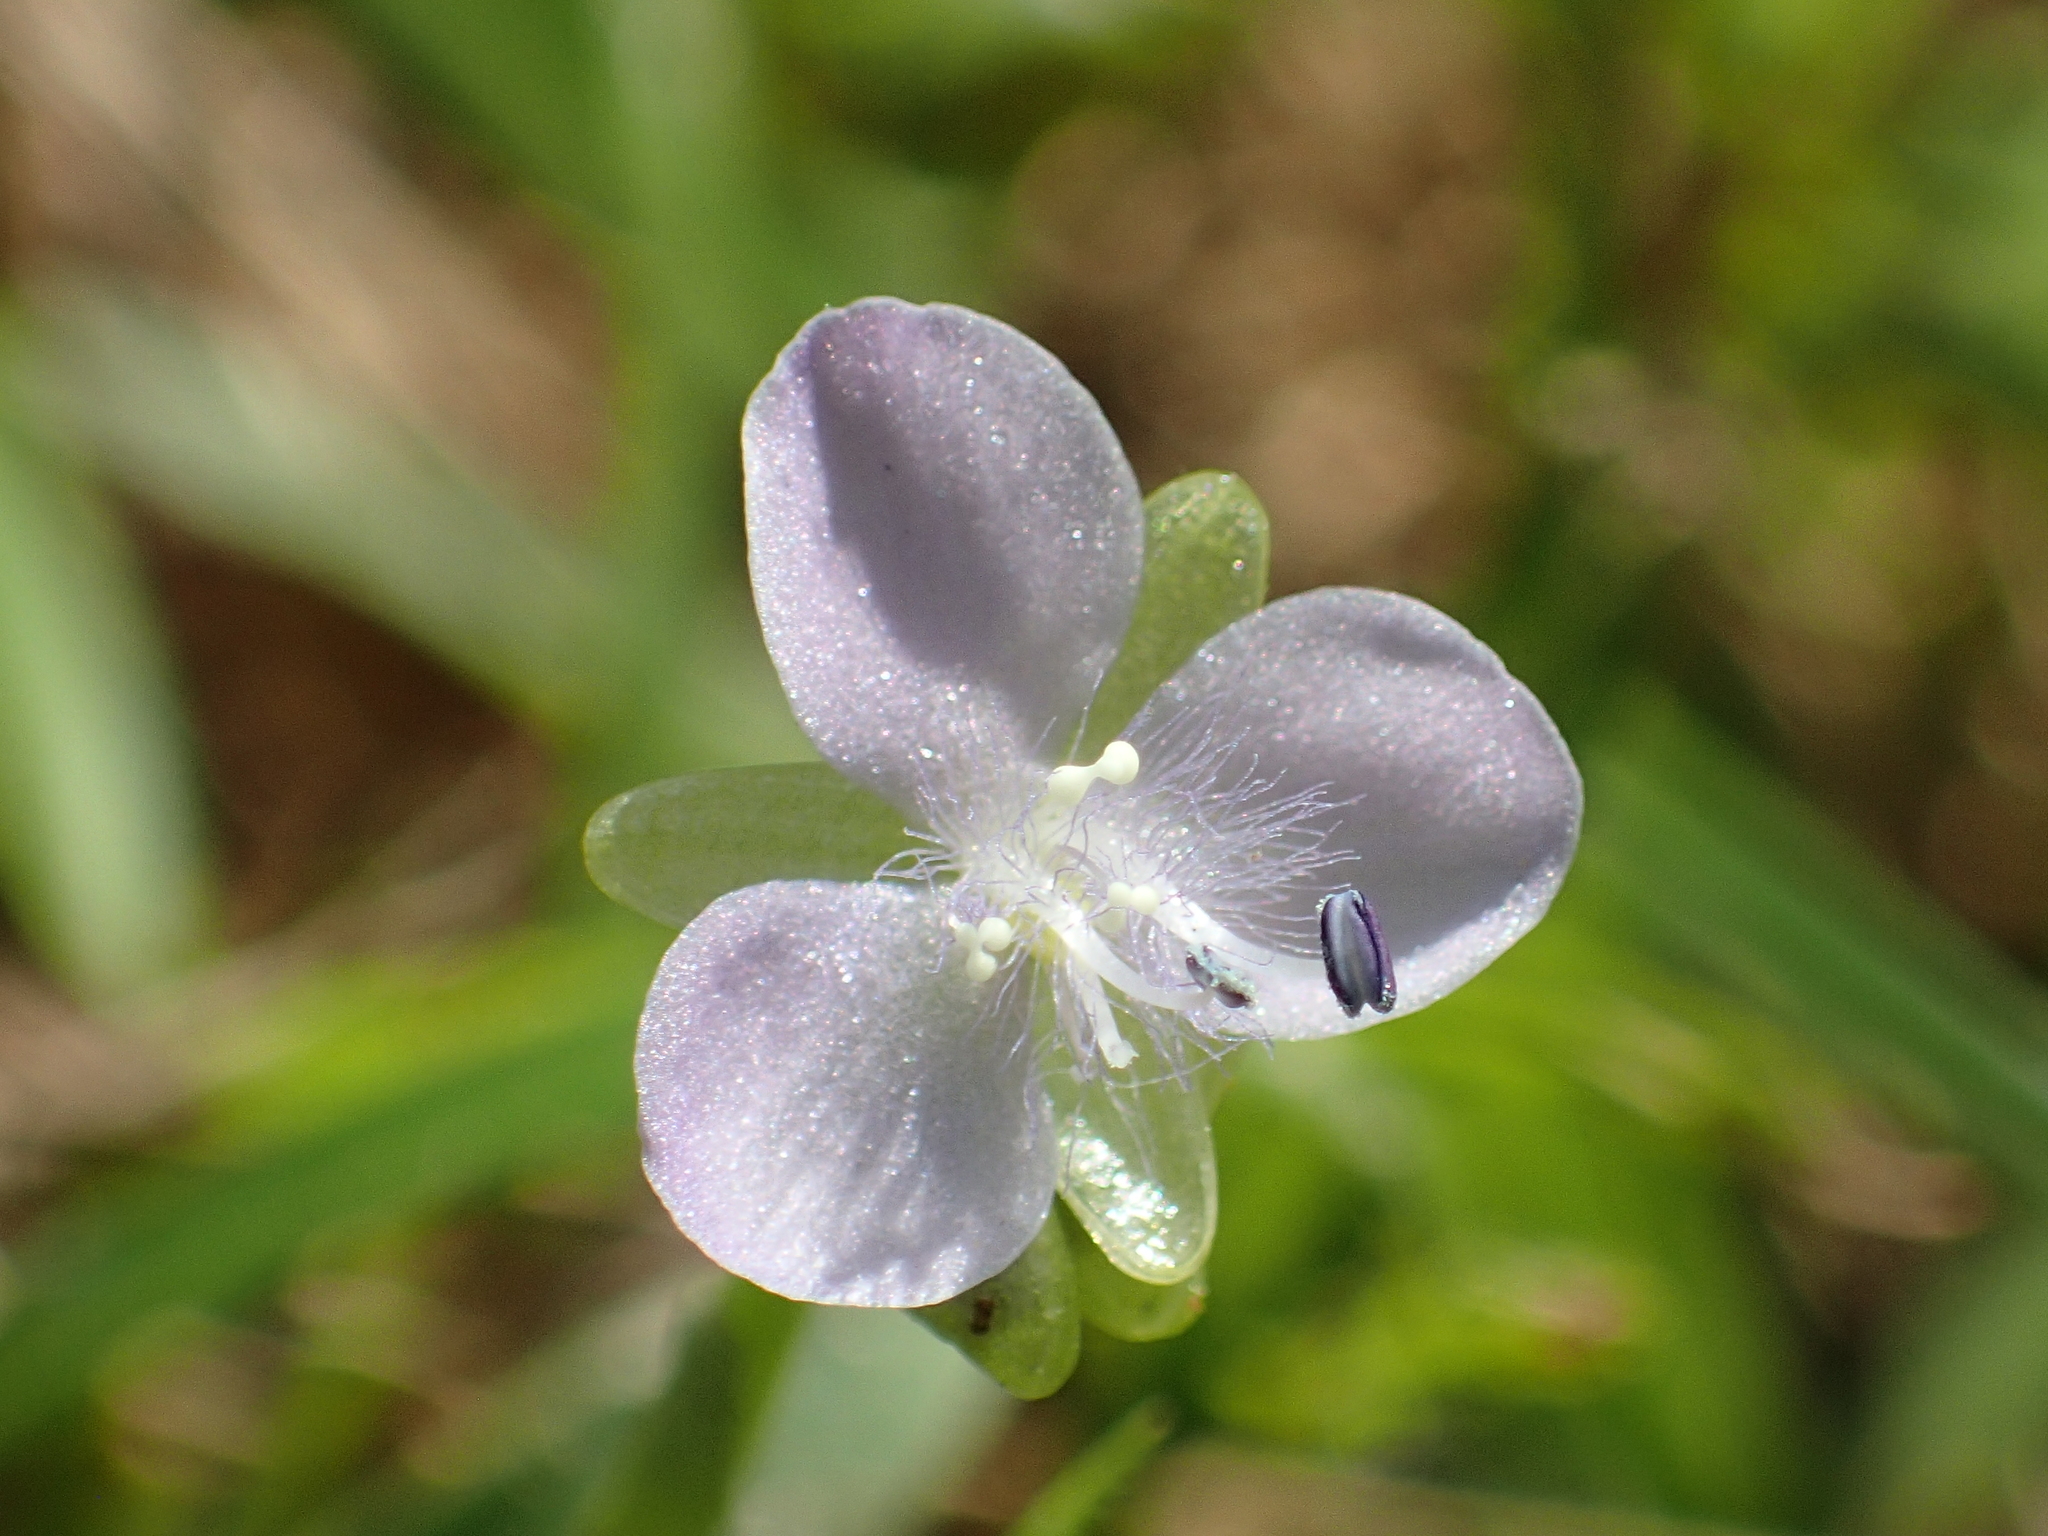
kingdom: Plantae
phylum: Tracheophyta
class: Liliopsida
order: Commelinales
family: Commelinaceae
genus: Murdannia
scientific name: Murdannia loriformis
